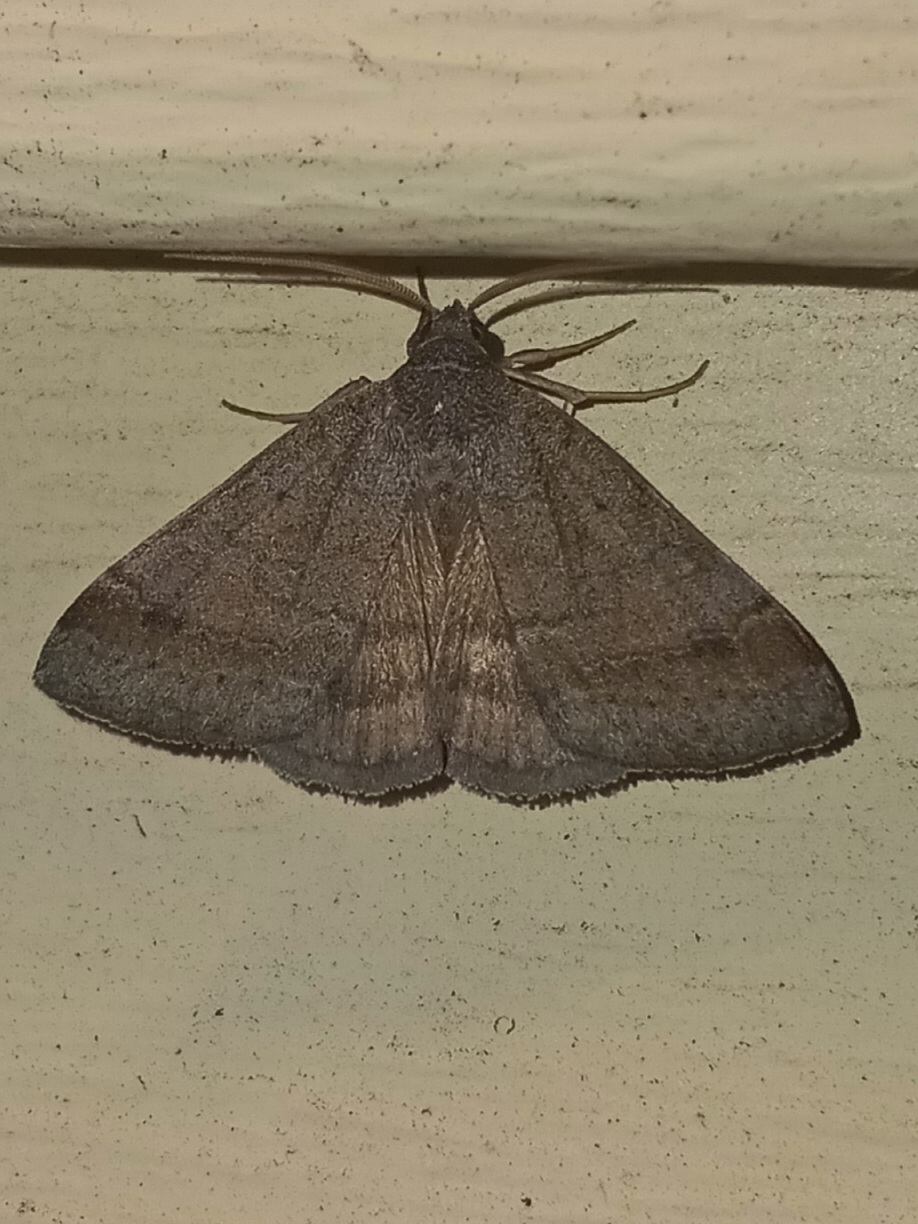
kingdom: Animalia
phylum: Arthropoda
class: Insecta
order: Lepidoptera
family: Erebidae
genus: Caenurgia
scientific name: Caenurgia chloropha
